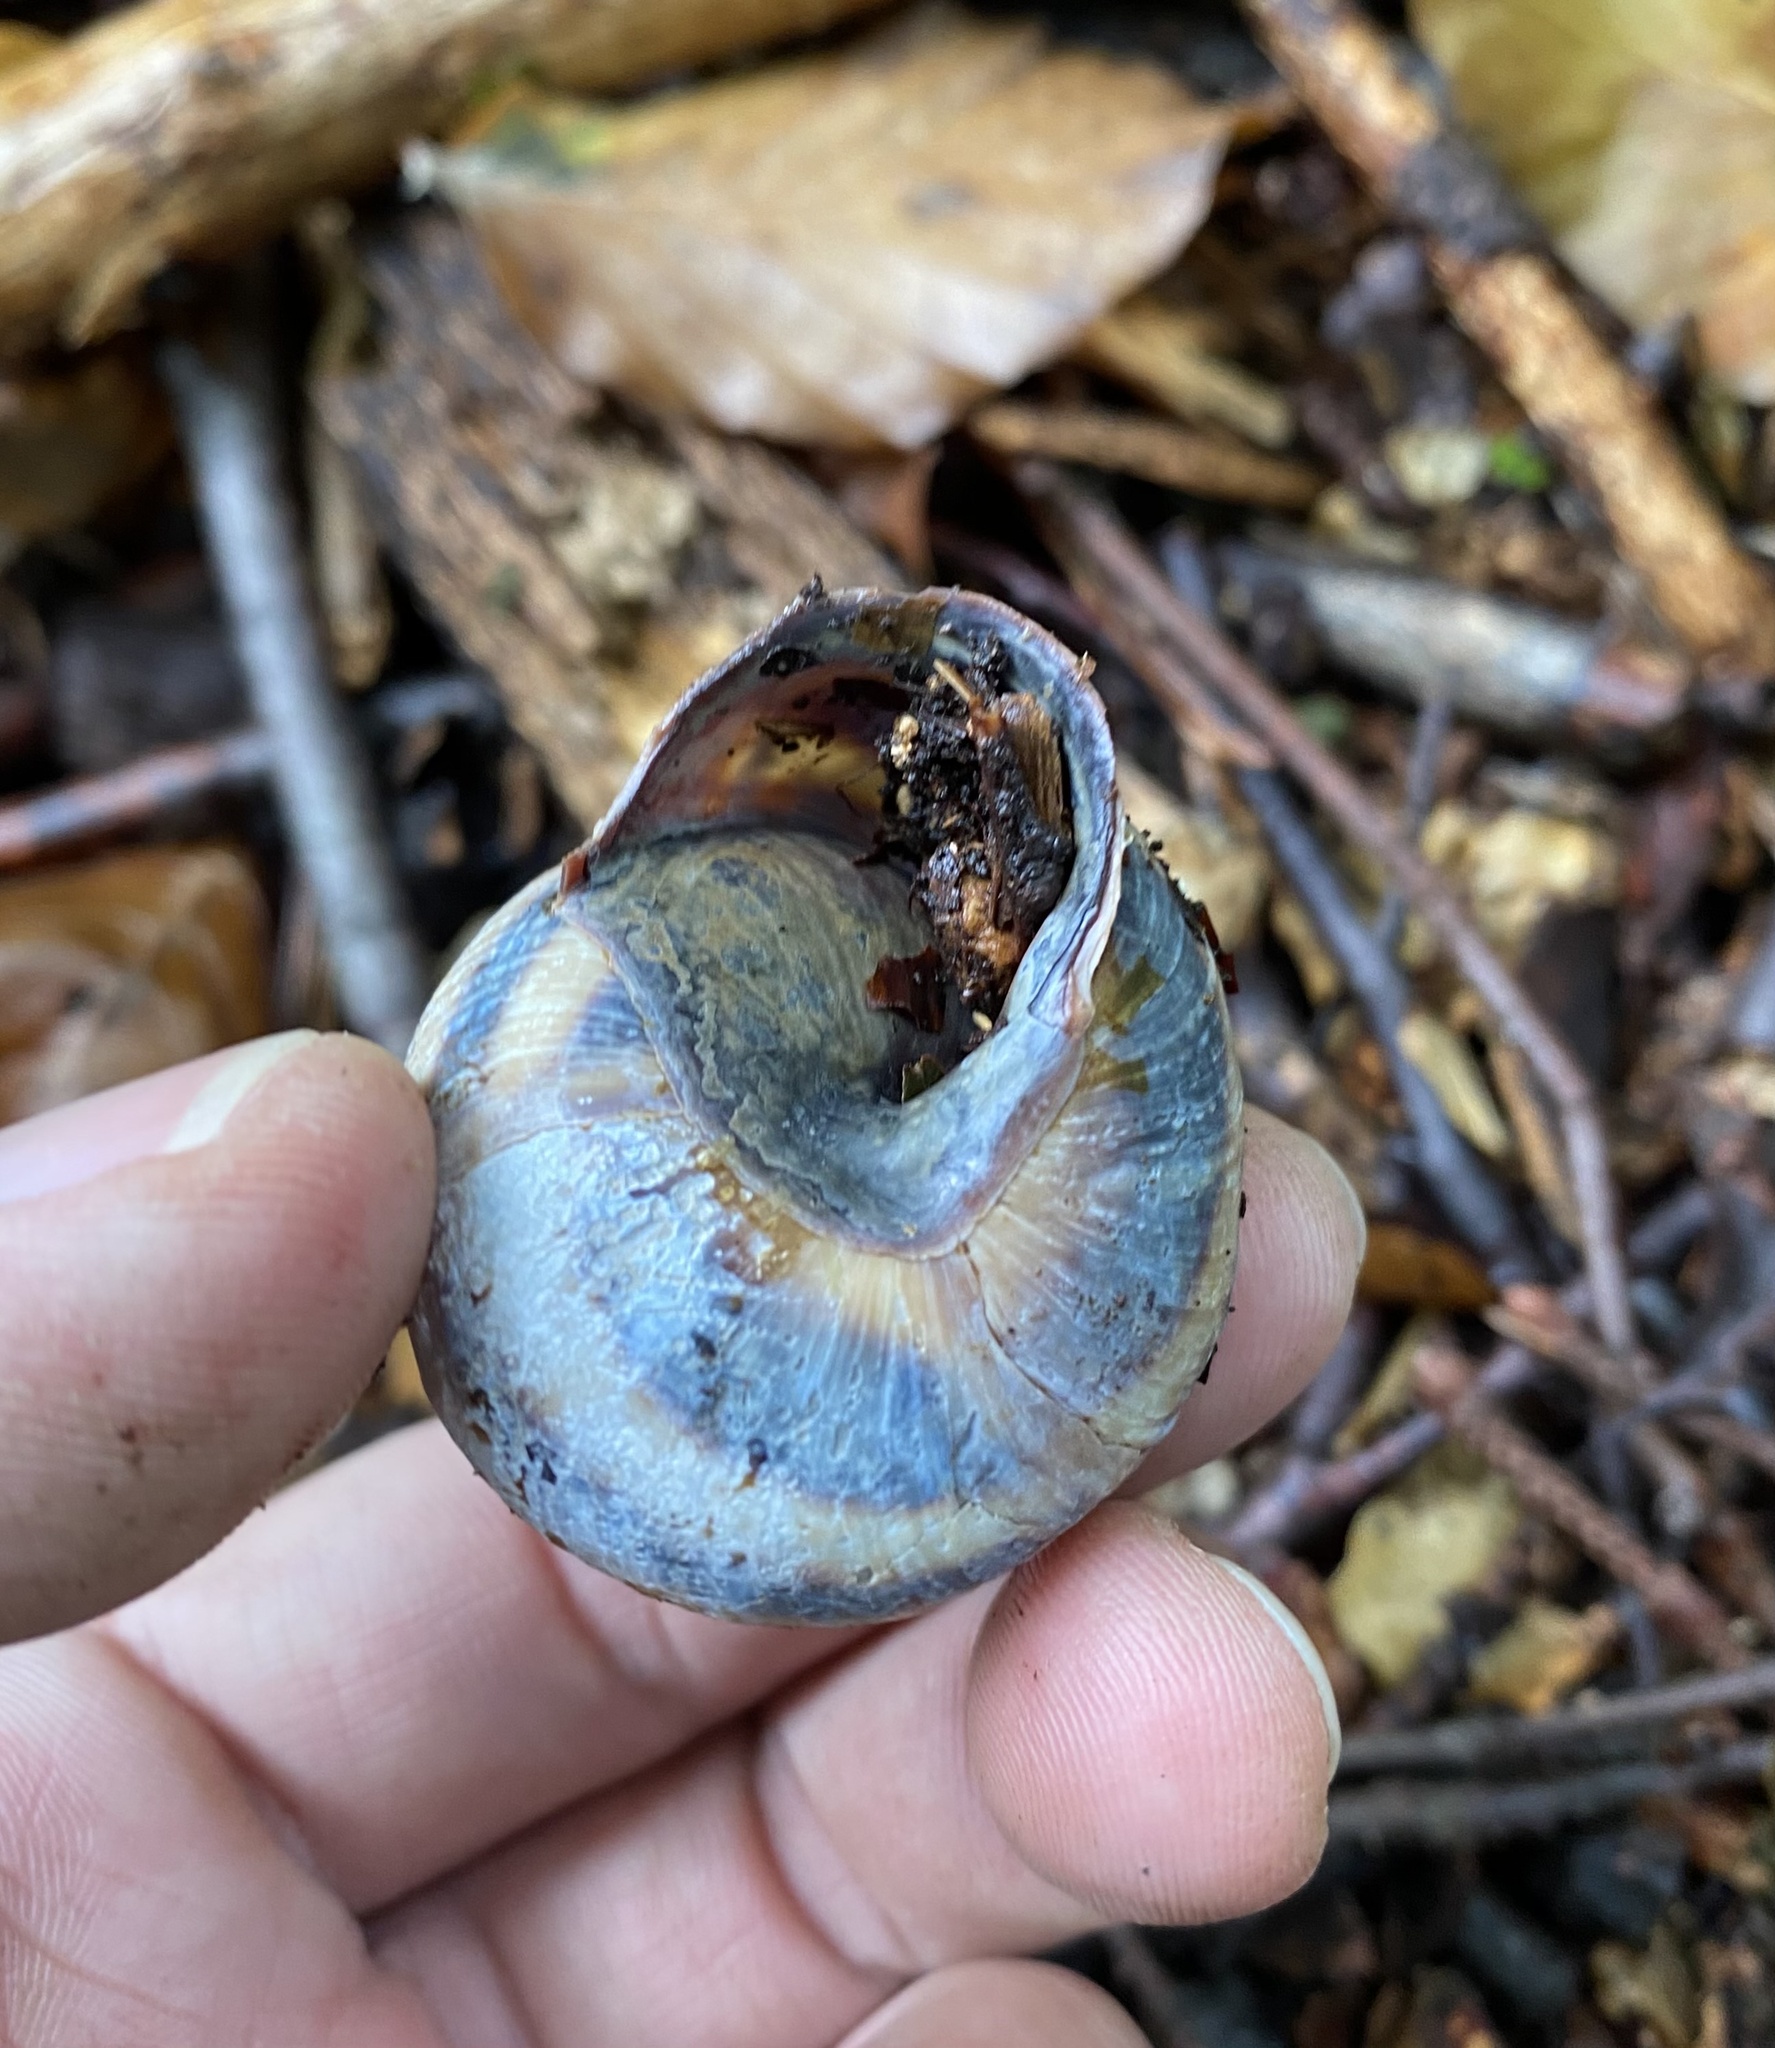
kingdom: Animalia
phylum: Mollusca
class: Gastropoda
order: Stylommatophora
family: Helicidae
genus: Caucasotachea
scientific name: Caucasotachea atrolabiata
